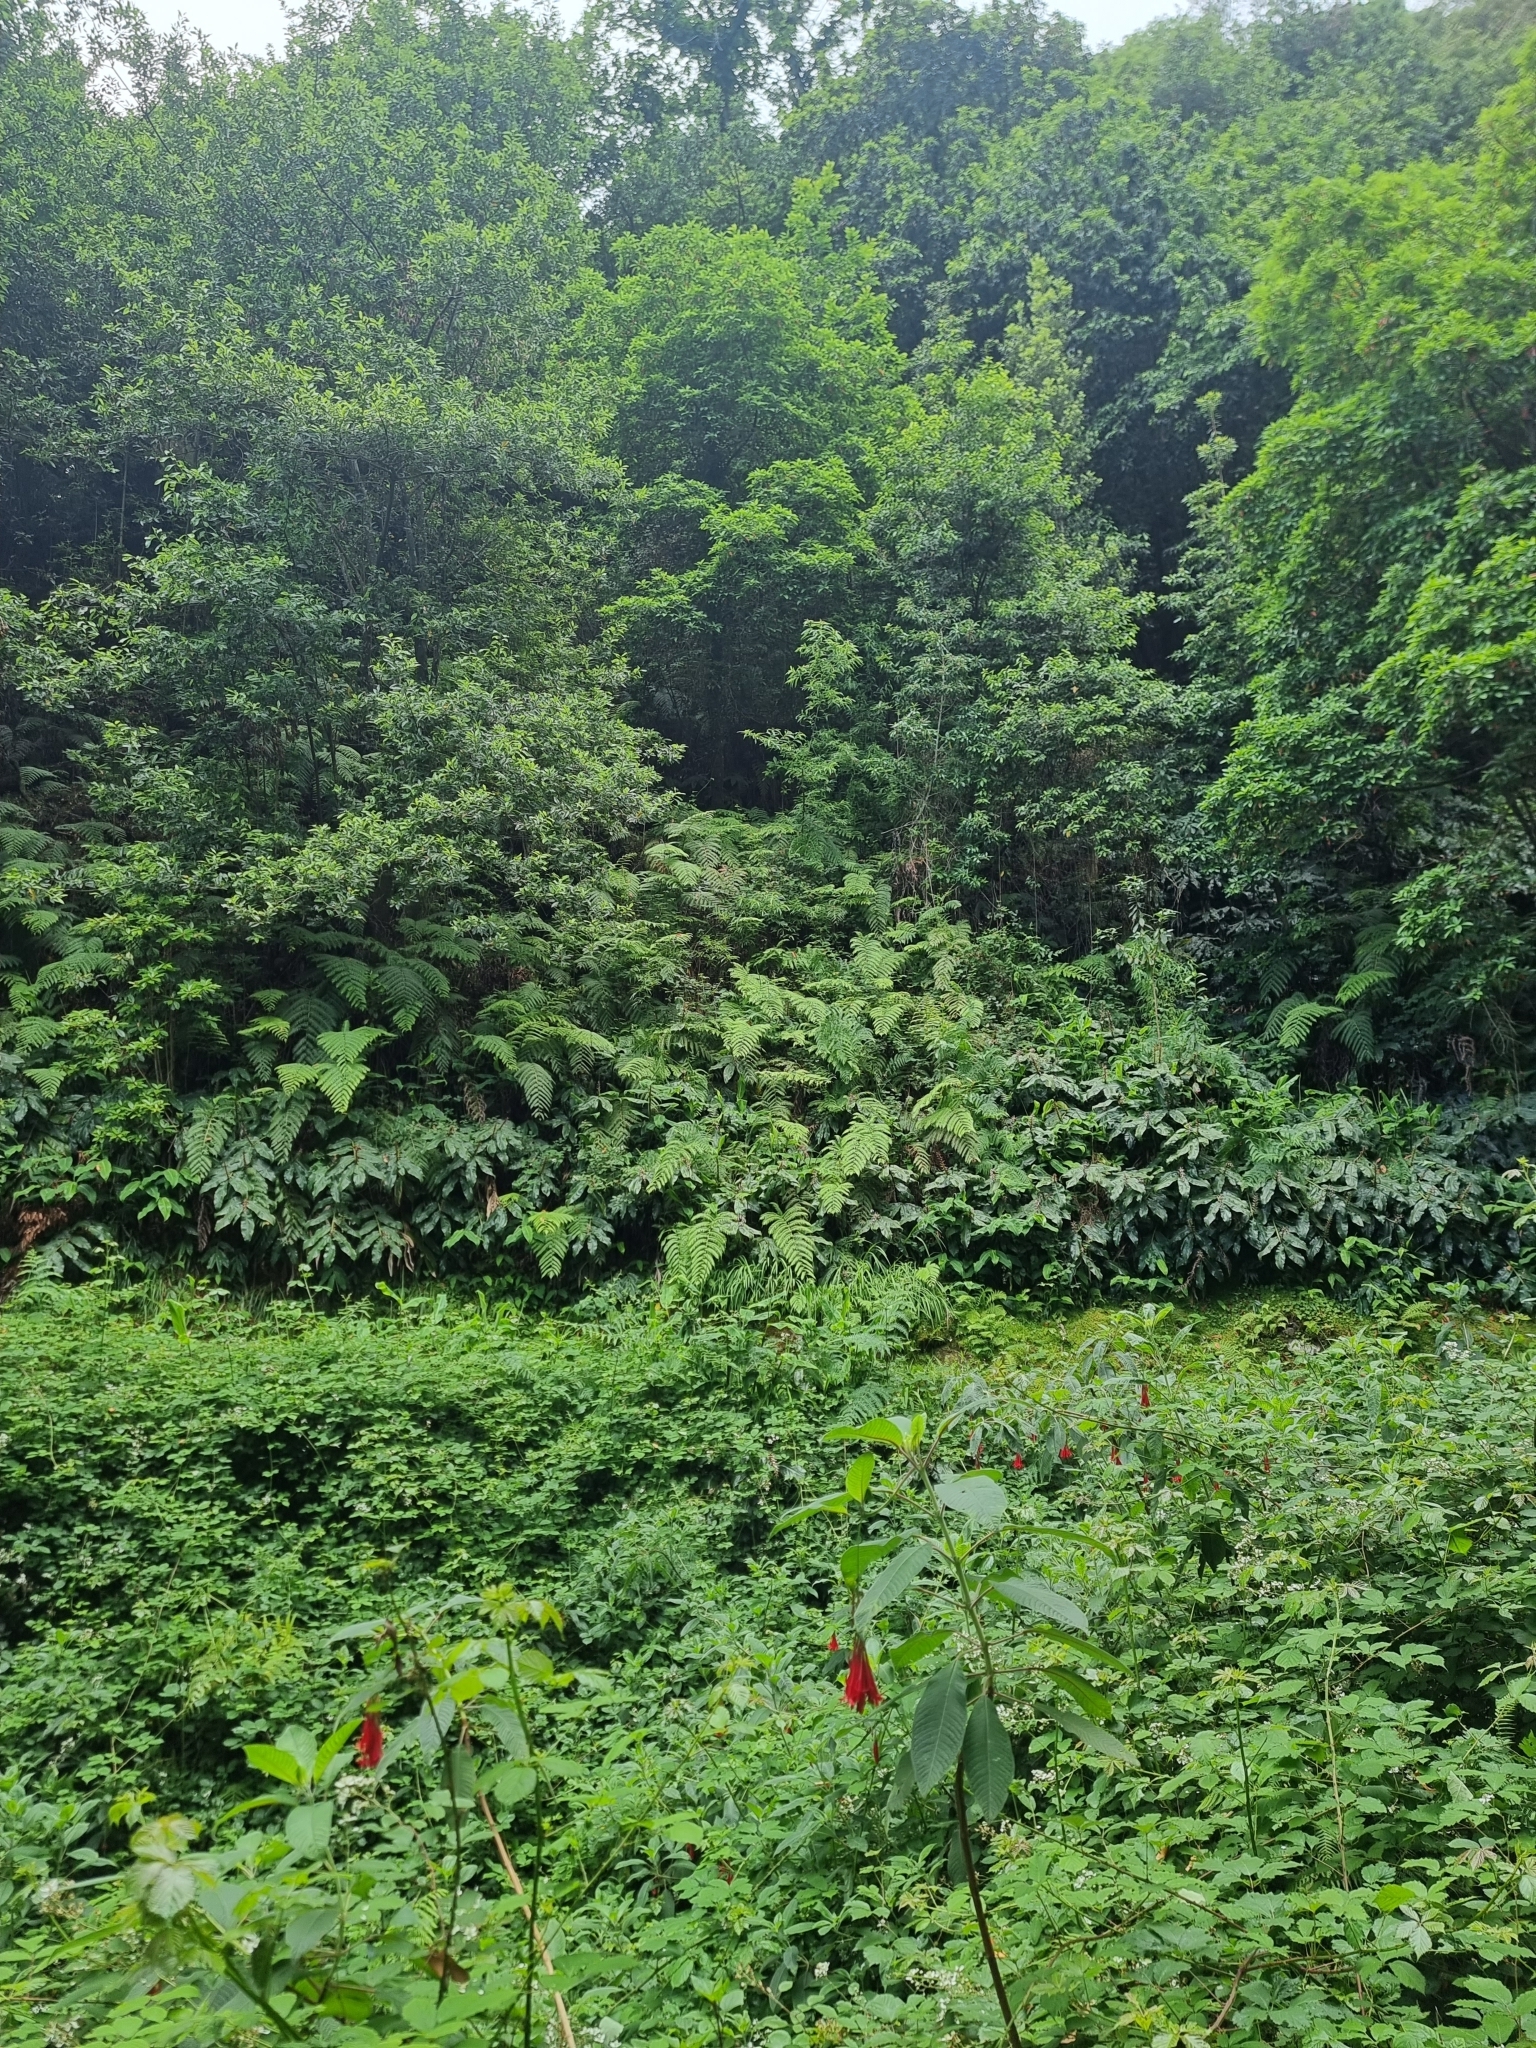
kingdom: Plantae
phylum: Tracheophyta
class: Polypodiopsida
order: Polypodiales
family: Blechnaceae
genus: Woodwardia
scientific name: Woodwardia radicans
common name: Rooting chainfern
